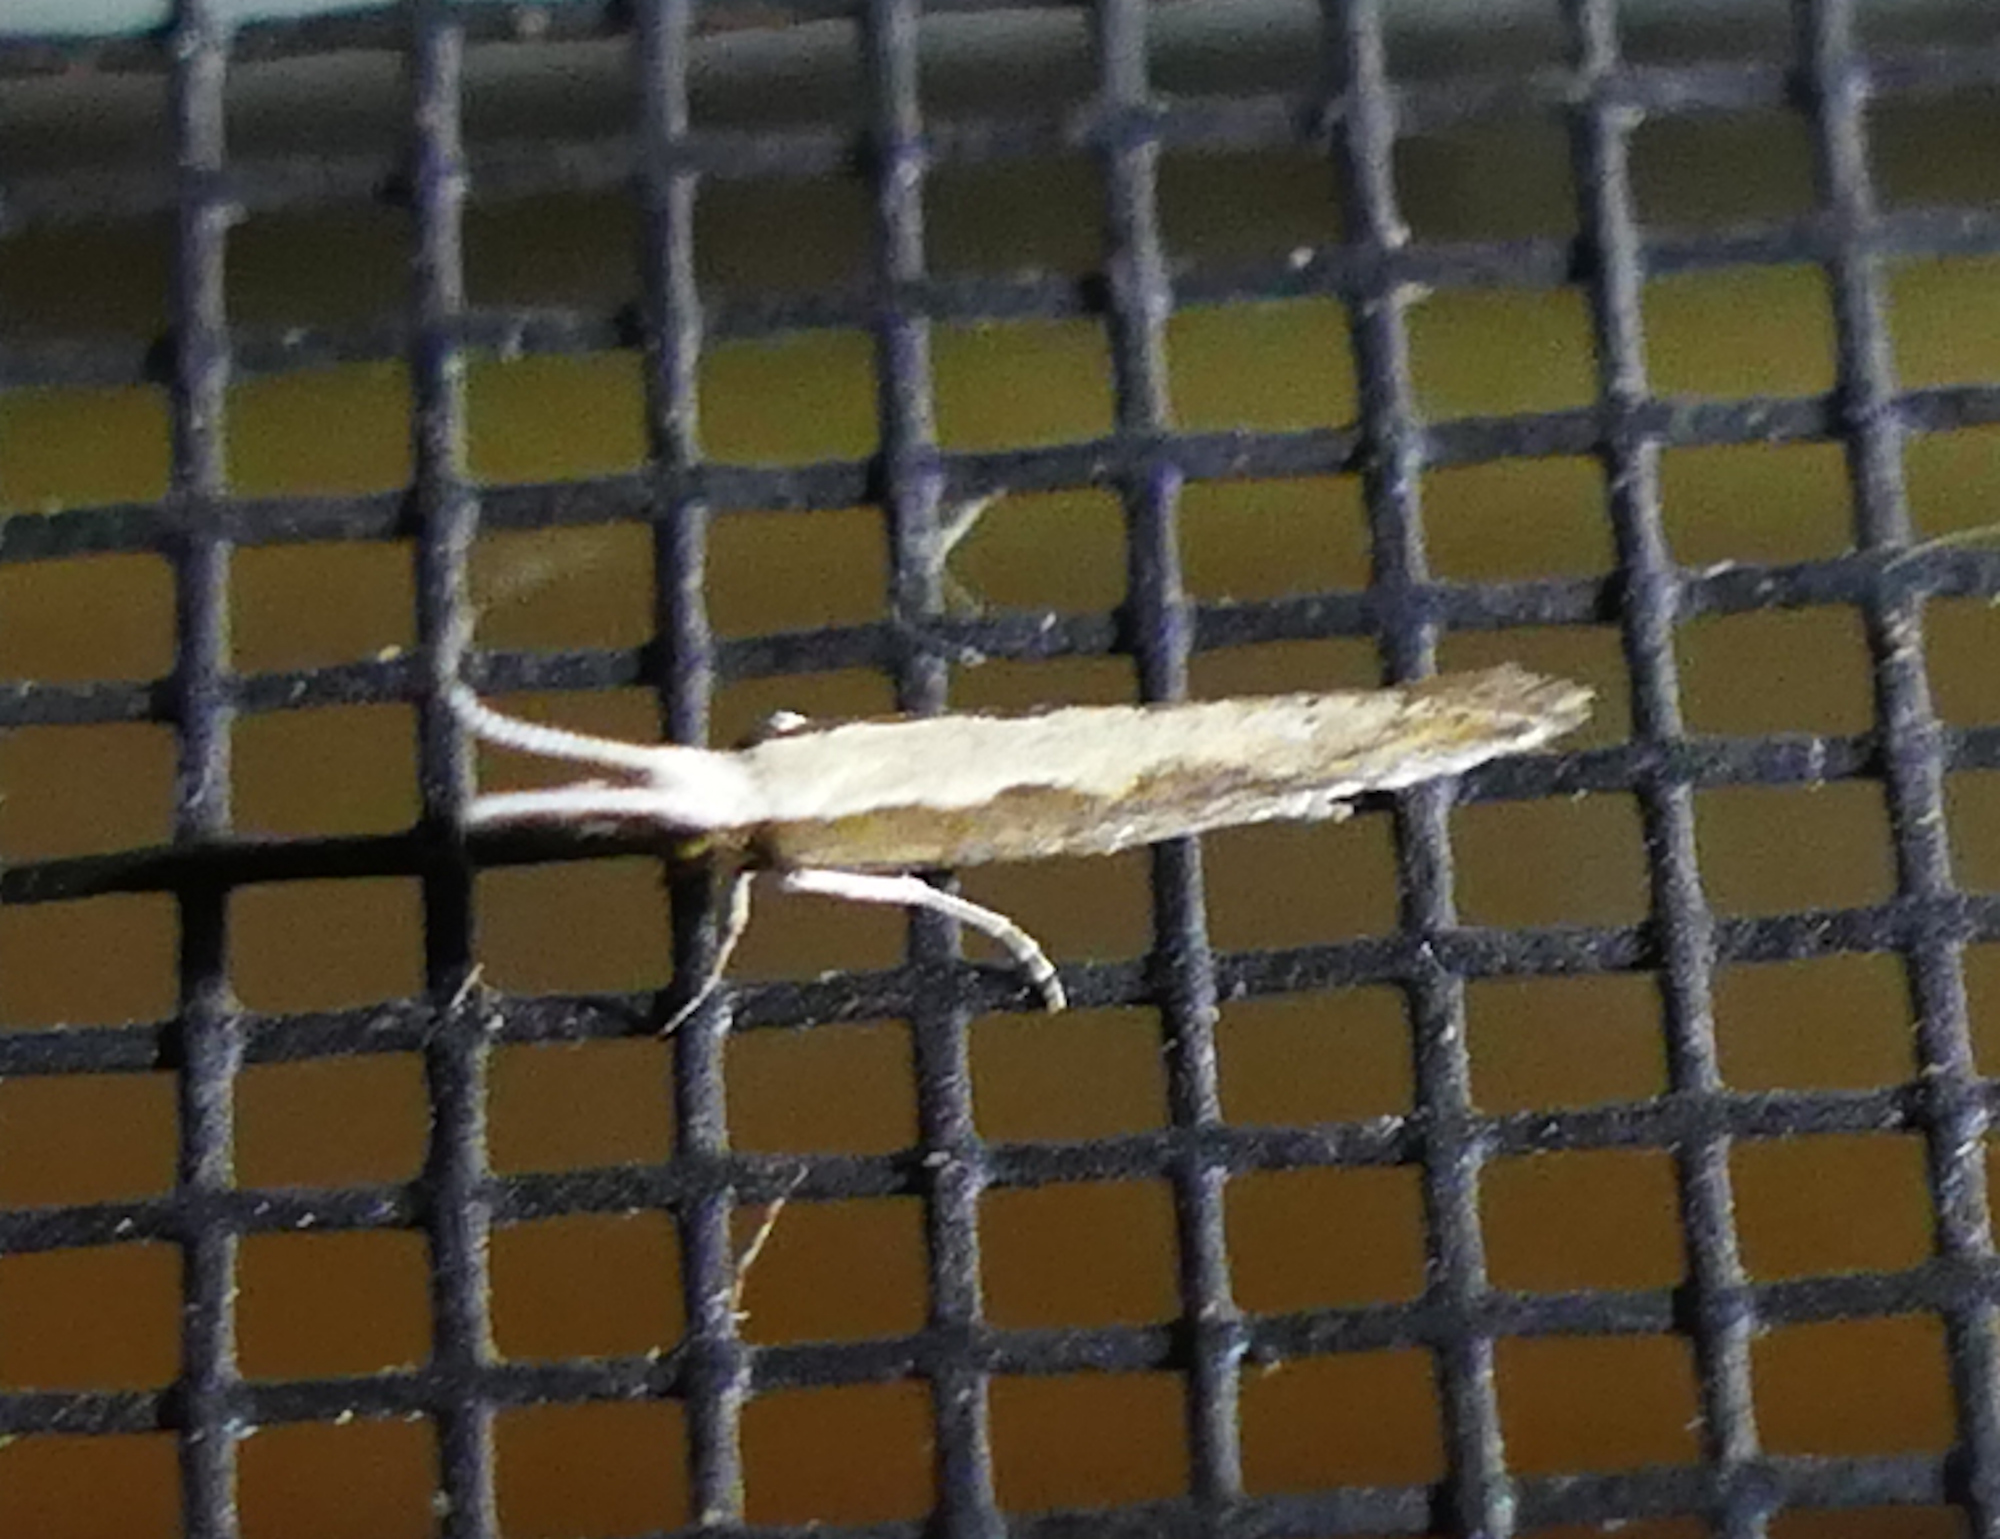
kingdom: Animalia
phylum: Arthropoda
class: Insecta
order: Lepidoptera
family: Plutellidae
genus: Plutella
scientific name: Plutella xylostella
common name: Diamond-back moth
